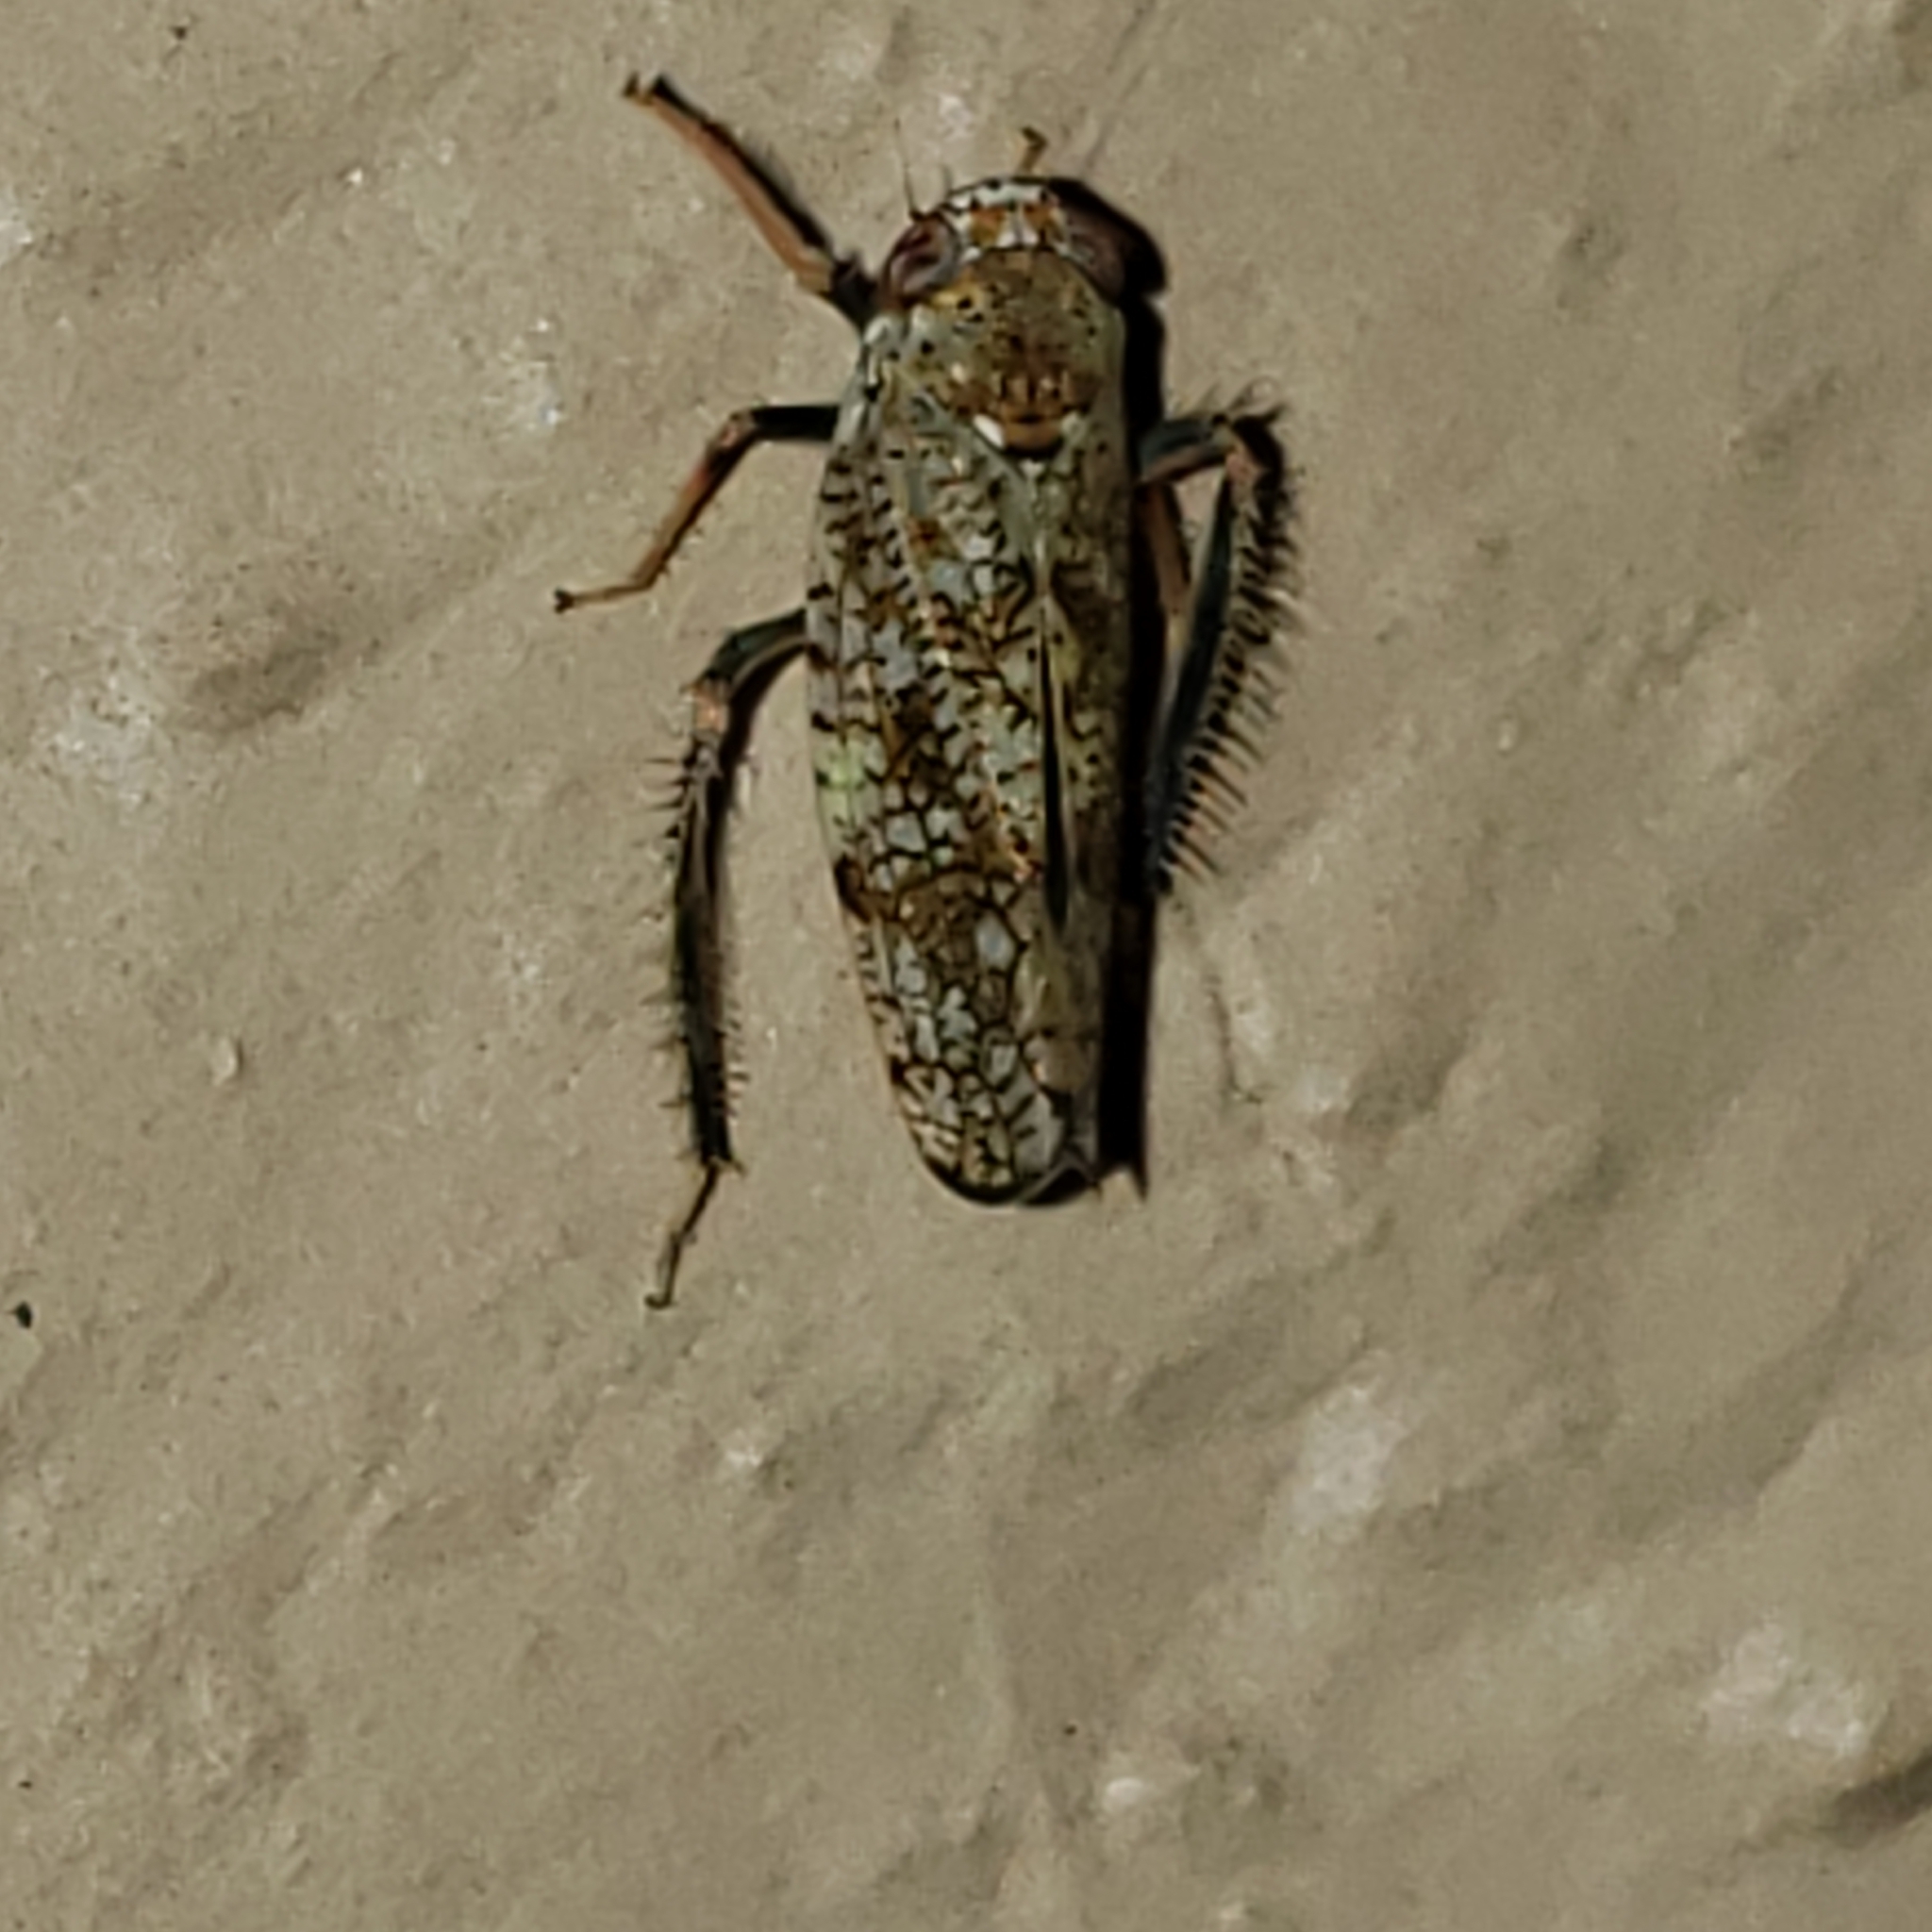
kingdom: Animalia
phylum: Arthropoda
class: Insecta
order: Hemiptera
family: Cicadellidae
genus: Orientus
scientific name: Orientus ishidae
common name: Japanese leafhopper
